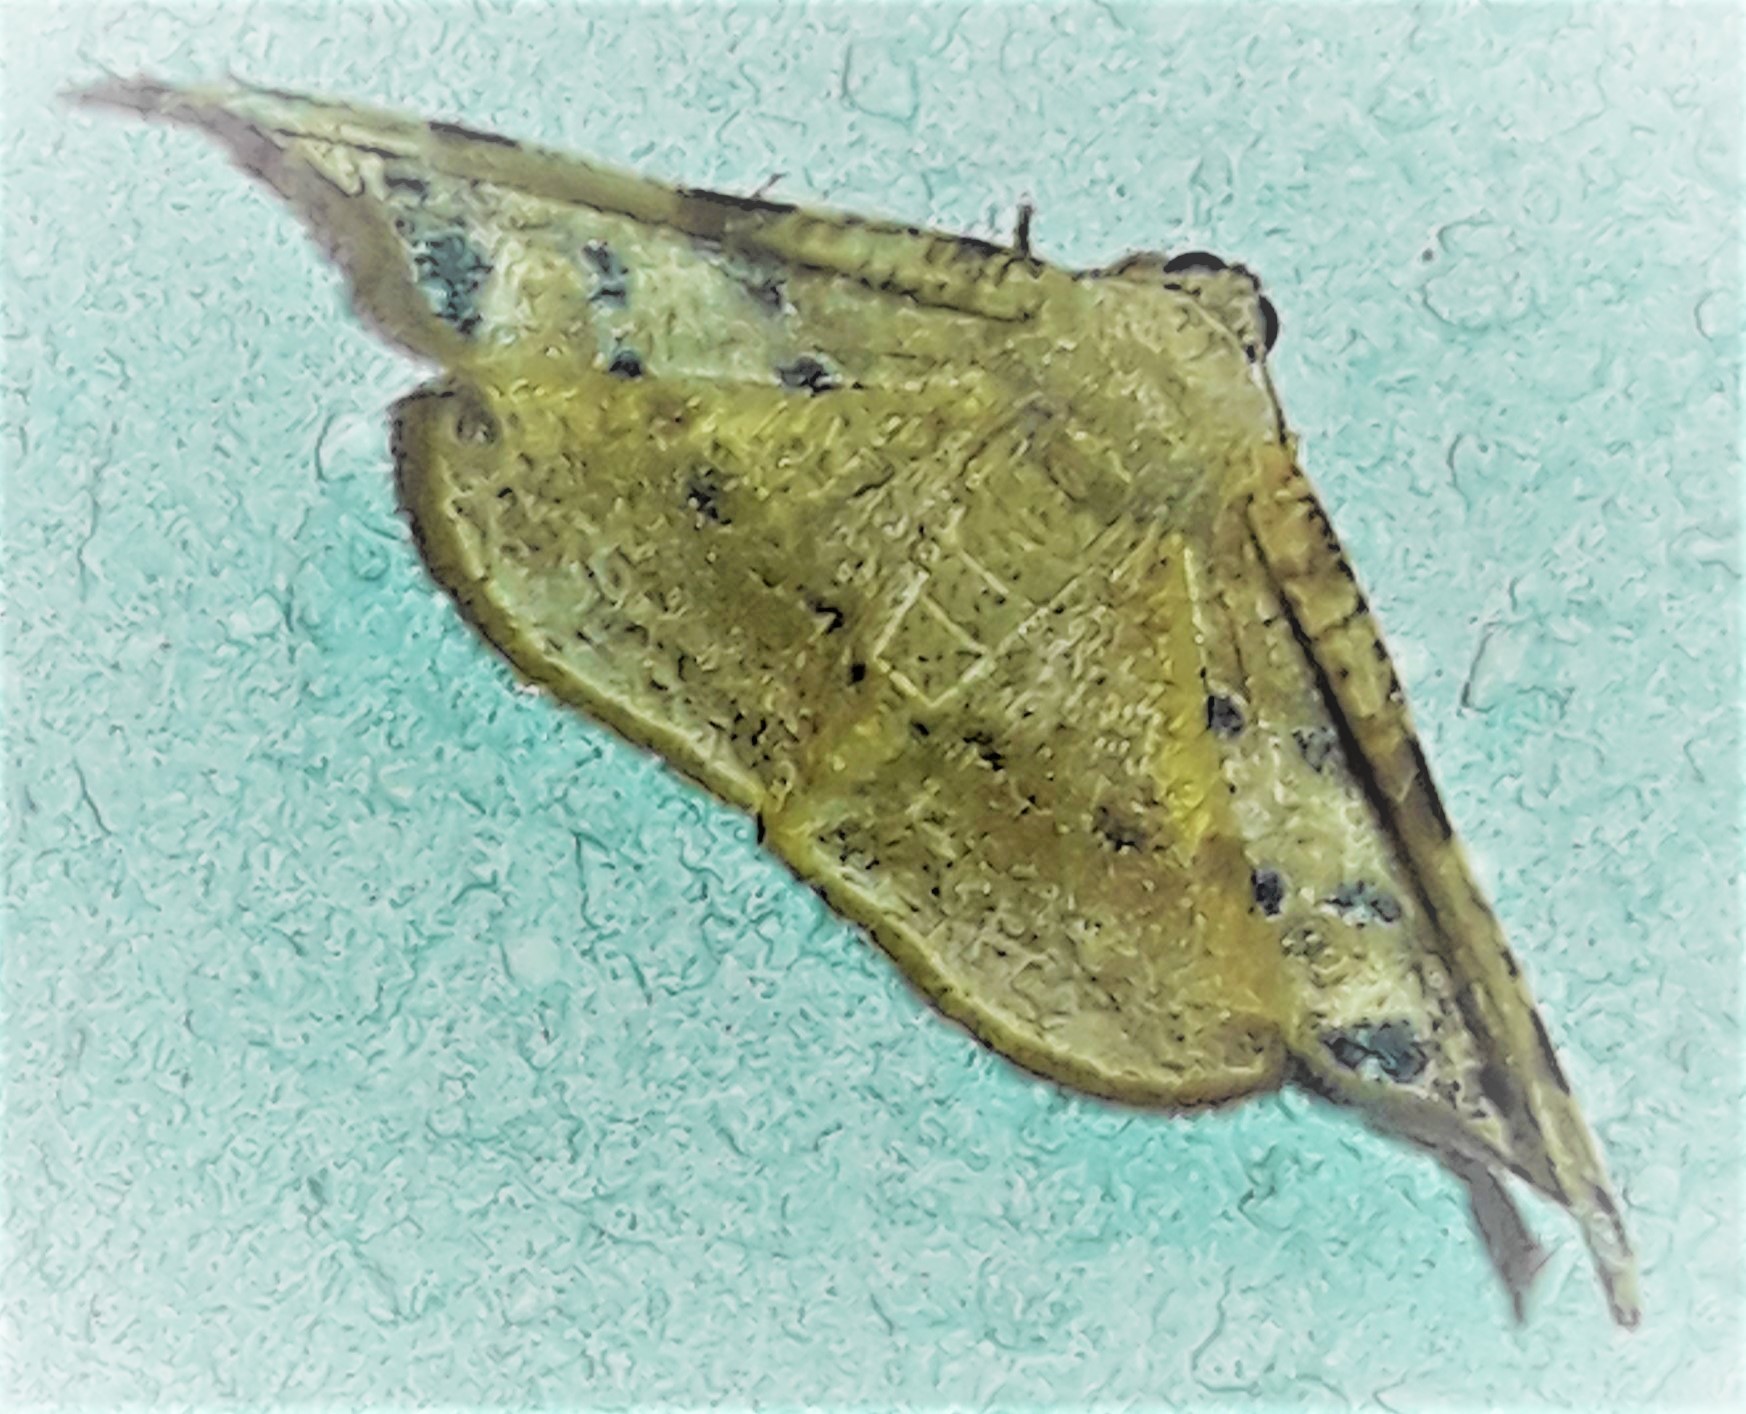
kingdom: Animalia
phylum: Arthropoda
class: Insecta
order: Lepidoptera
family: Geometridae
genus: Pyrinia
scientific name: Pyrinia selecta
